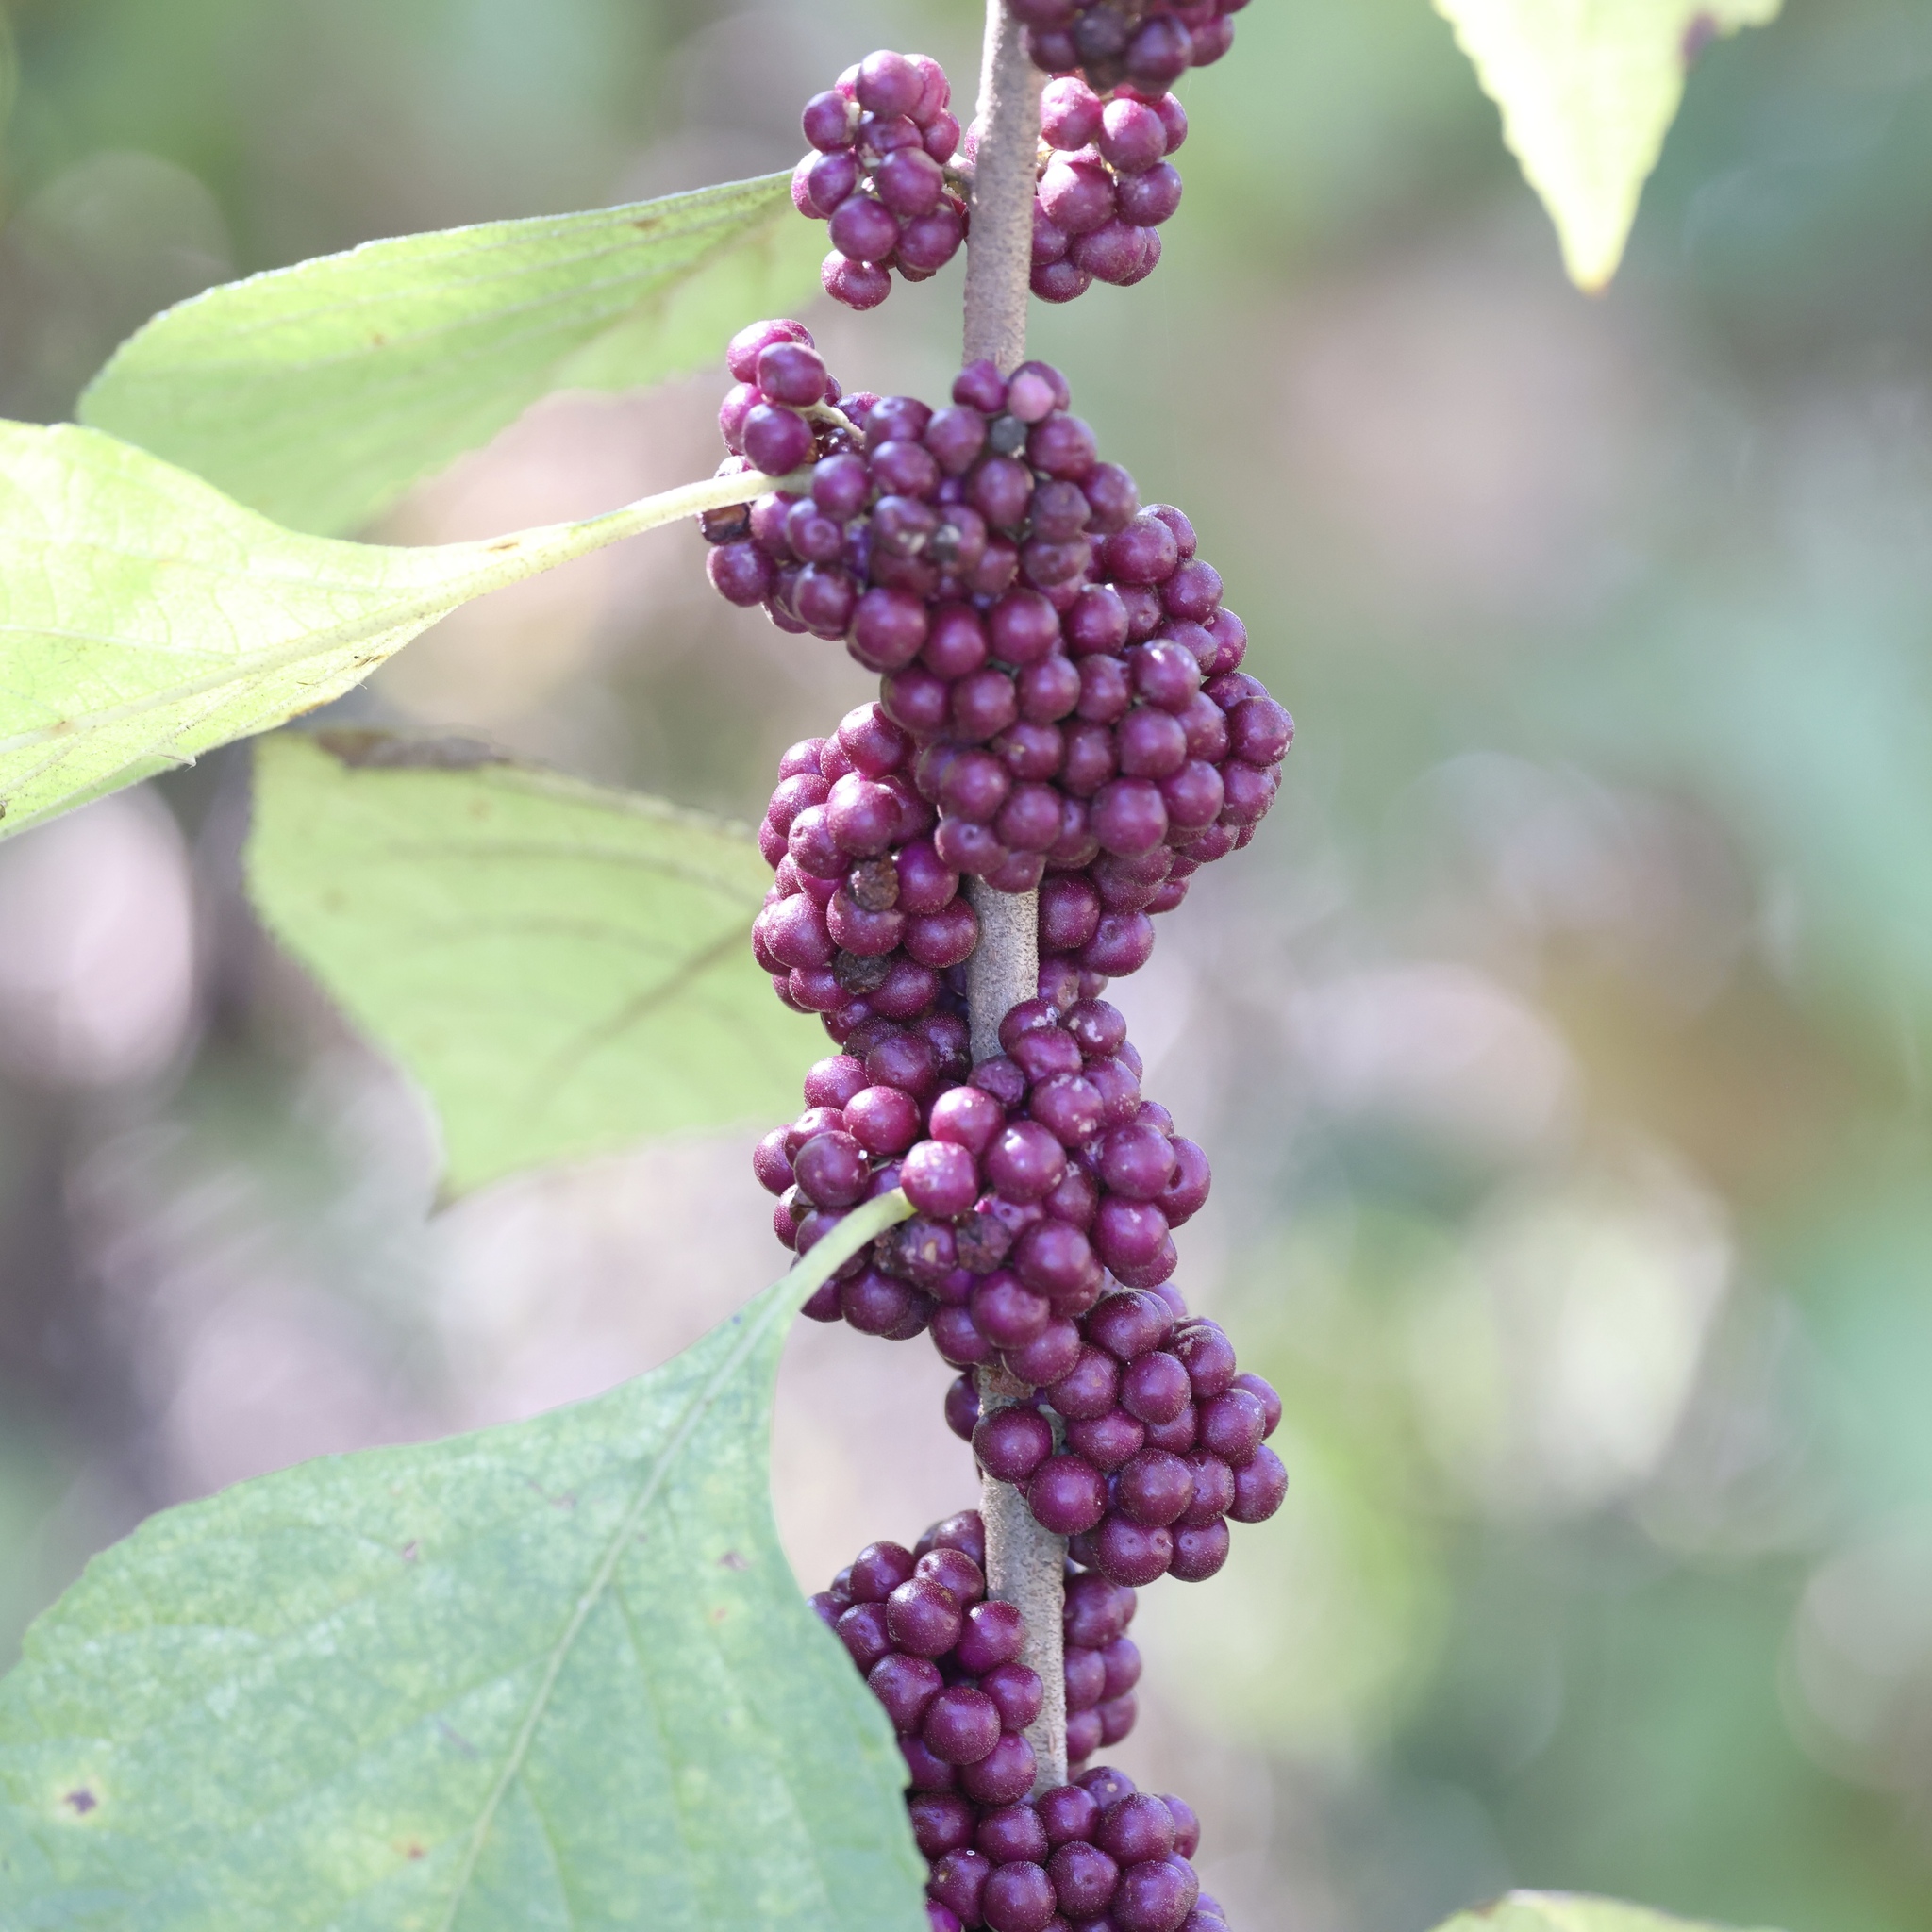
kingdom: Plantae
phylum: Tracheophyta
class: Magnoliopsida
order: Lamiales
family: Lamiaceae
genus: Callicarpa
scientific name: Callicarpa americana
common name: American beautyberry
